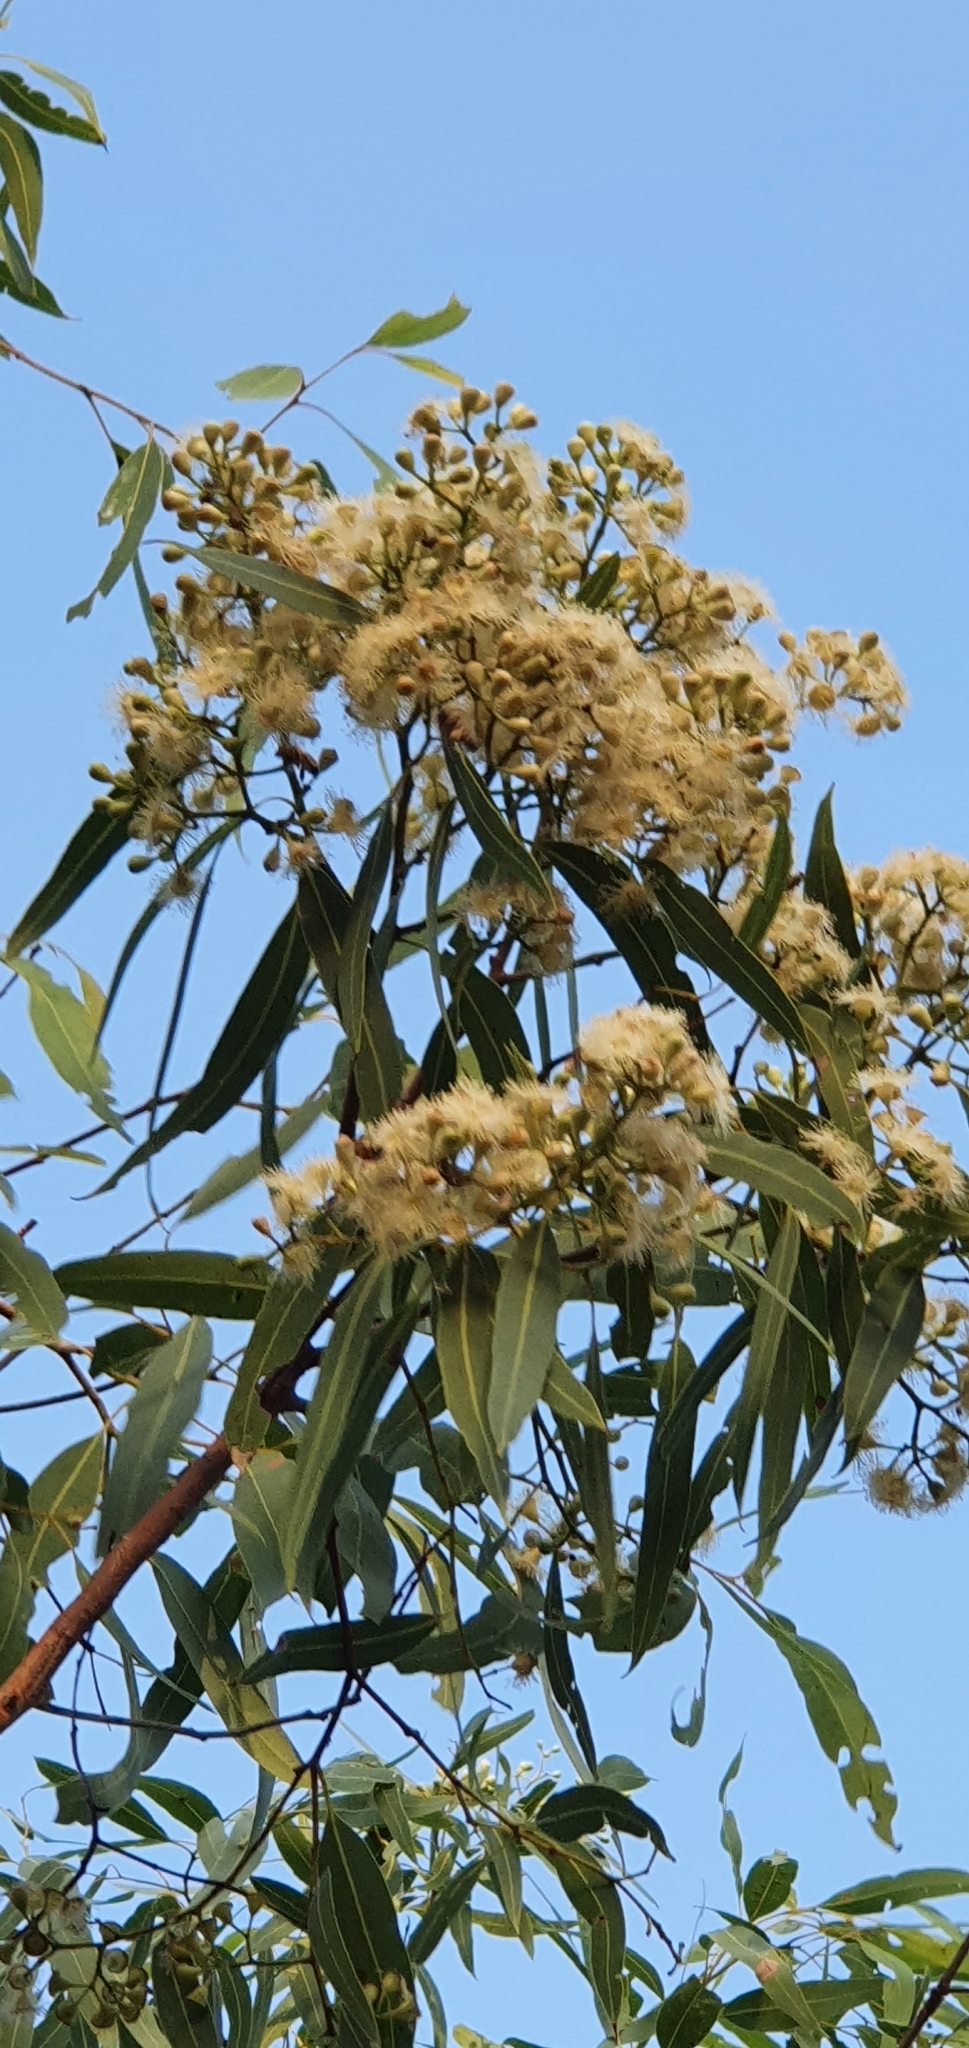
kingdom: Plantae
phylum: Tracheophyta
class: Magnoliopsida
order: Myrtales
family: Myrtaceae
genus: Corymbia
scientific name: Corymbia erythrophloia
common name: Red bloodwood
